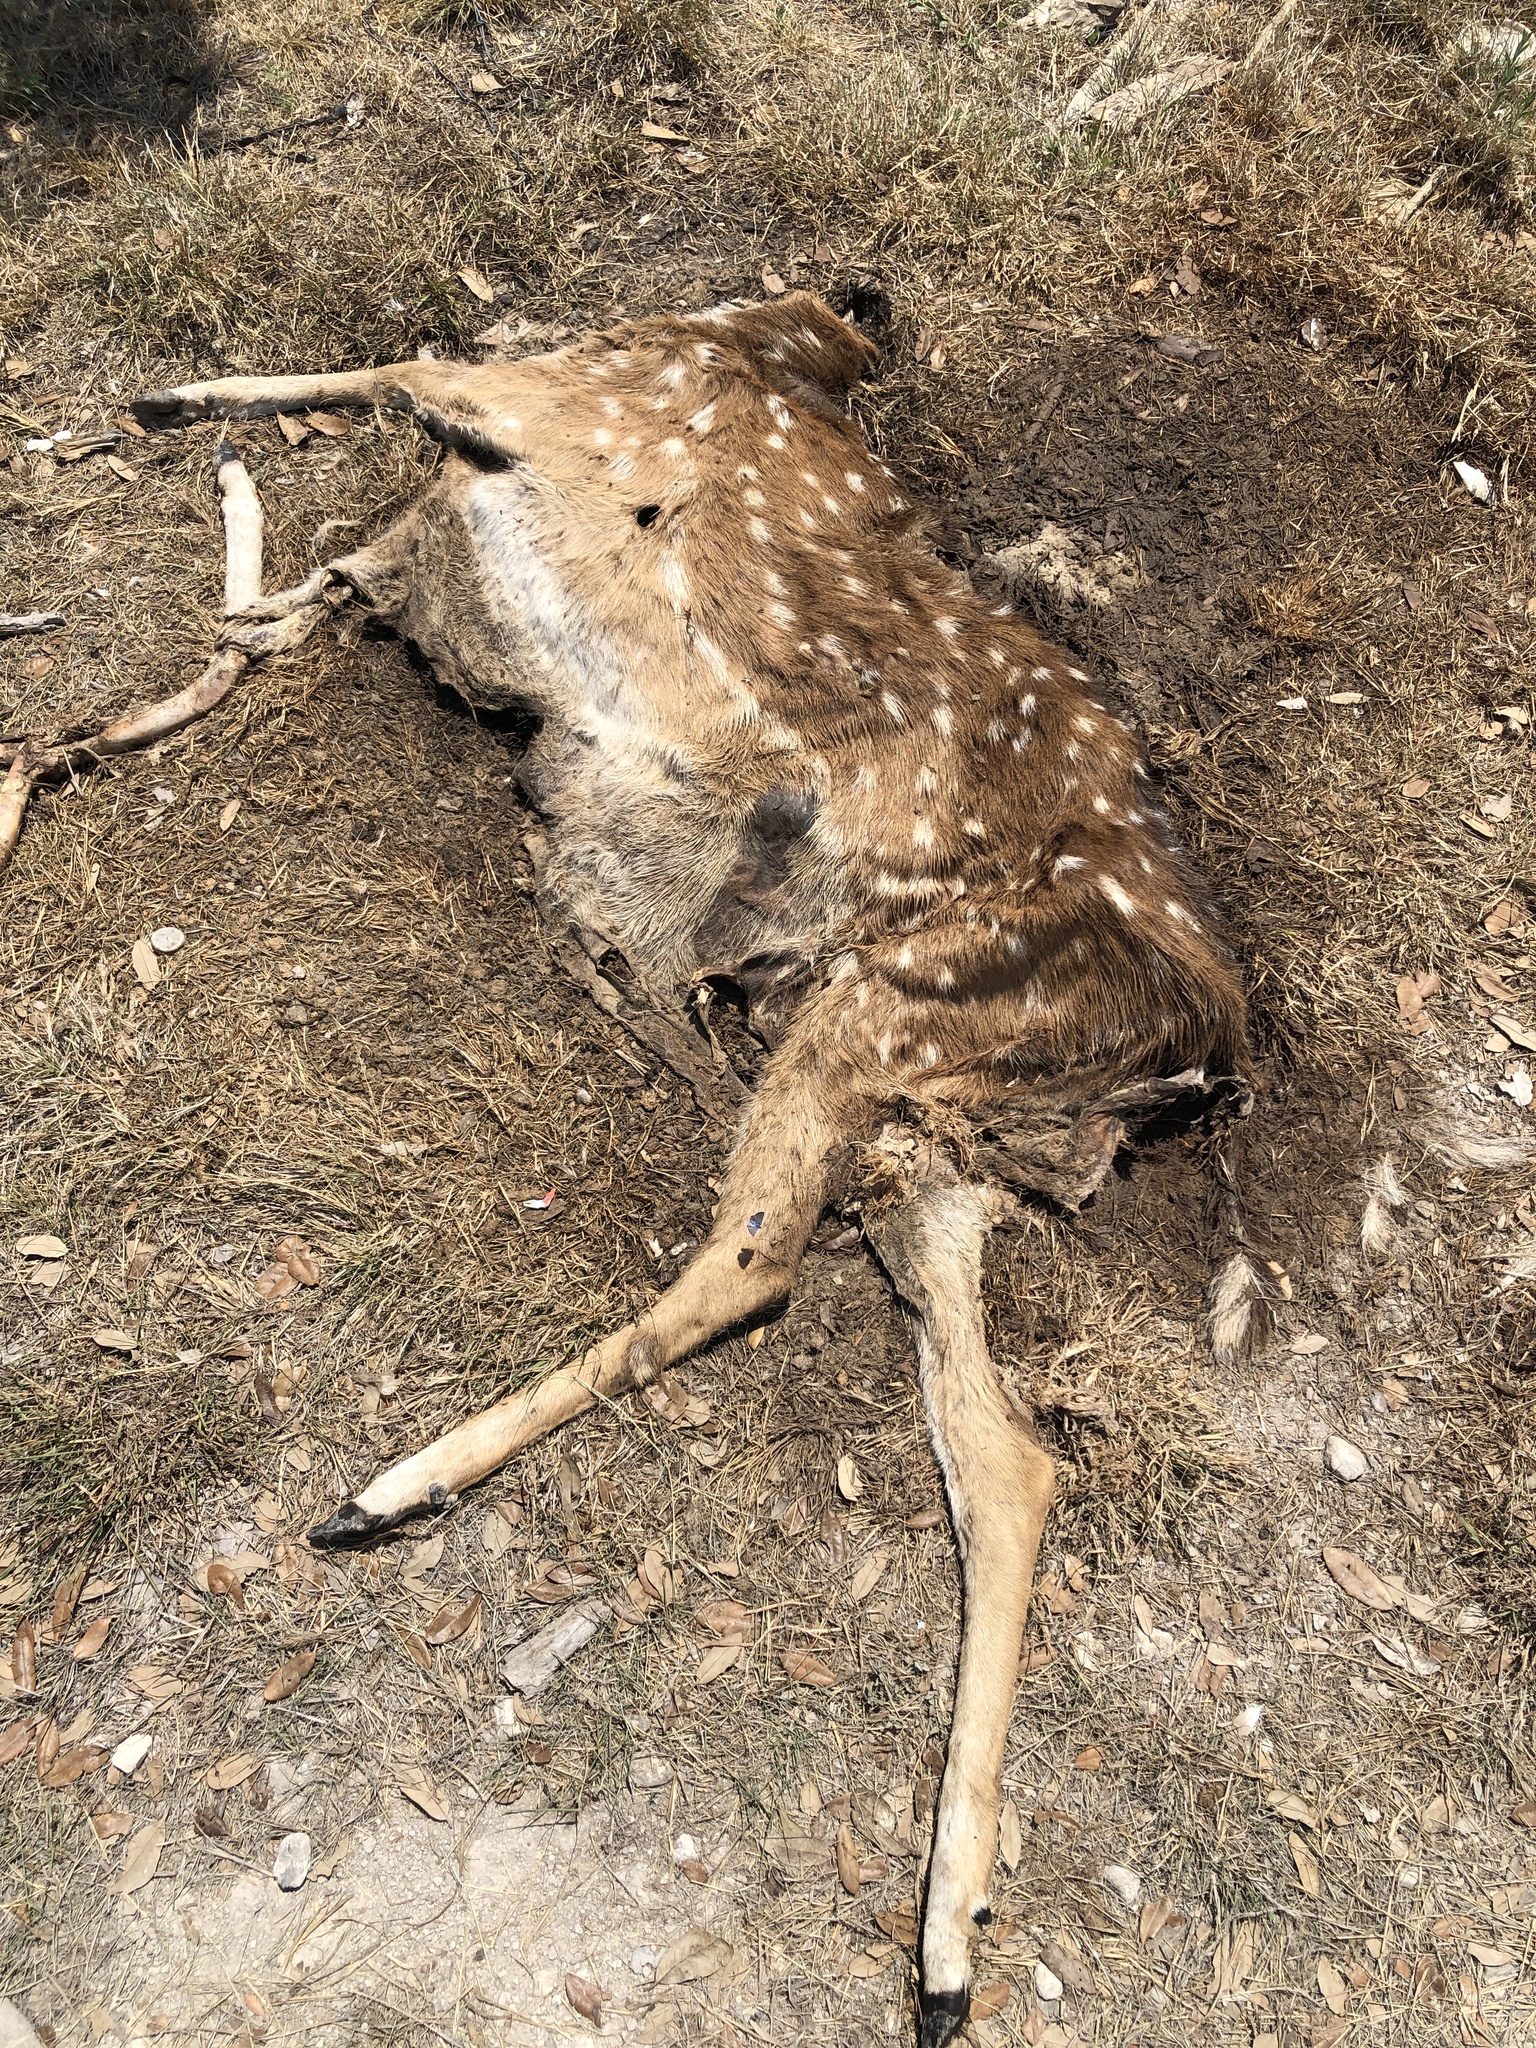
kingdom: Animalia
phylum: Chordata
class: Mammalia
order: Artiodactyla
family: Cervidae
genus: Axis
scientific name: Axis axis
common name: Chital
